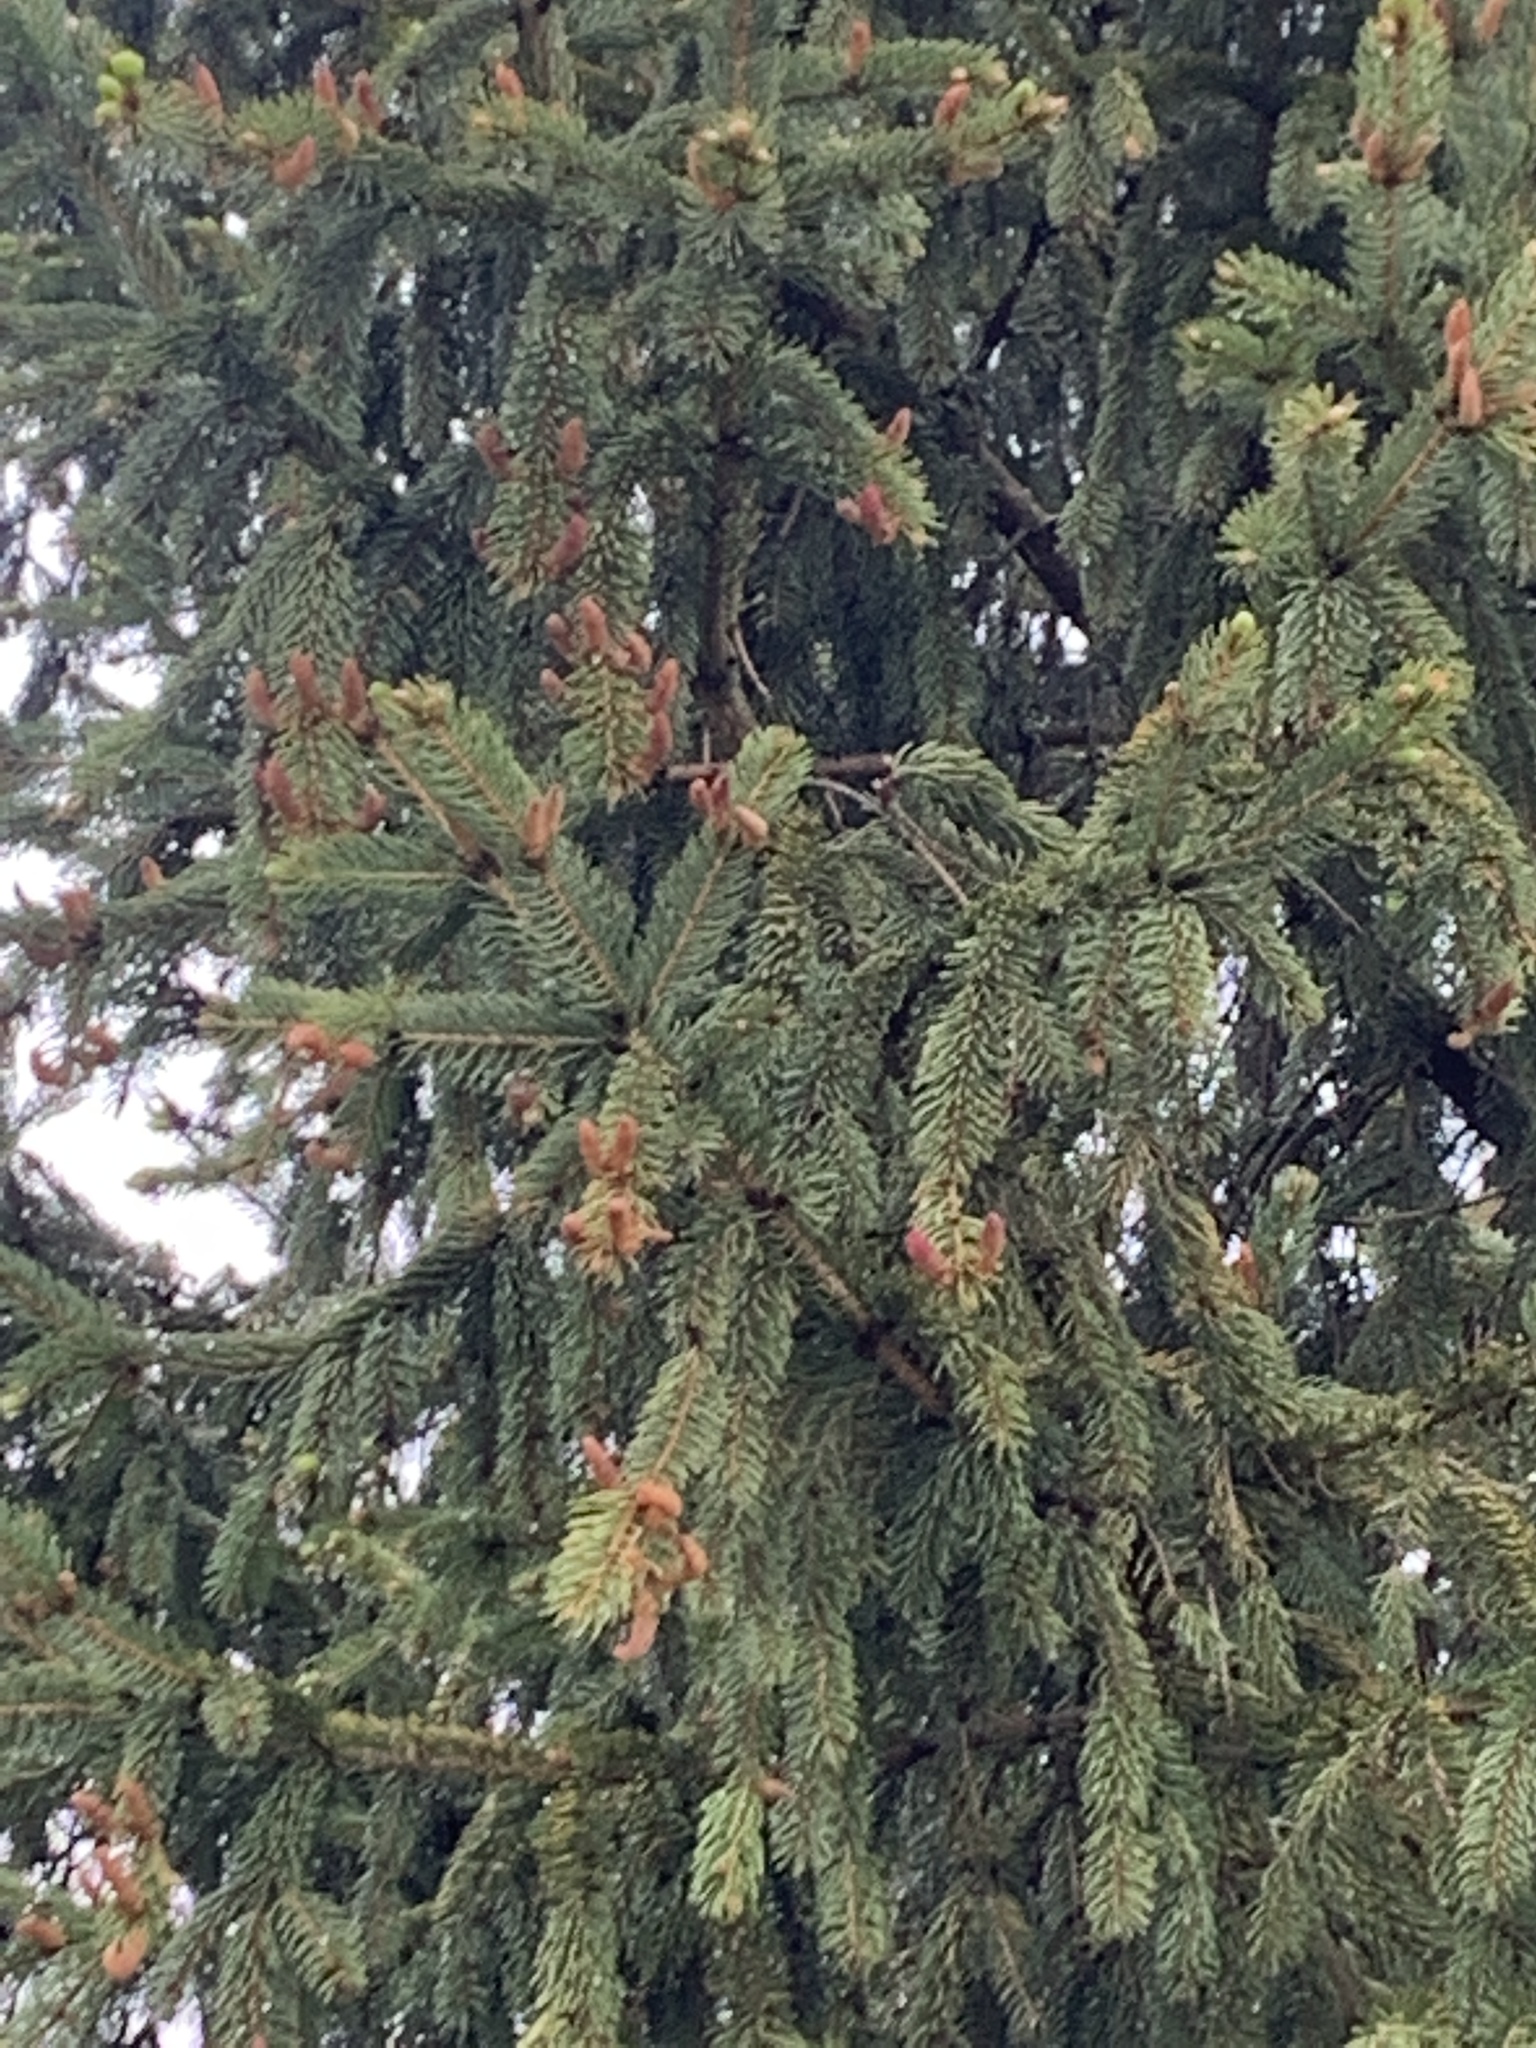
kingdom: Plantae
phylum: Tracheophyta
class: Pinopsida
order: Pinales
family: Pinaceae
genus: Picea
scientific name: Picea abies
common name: Norway spruce
